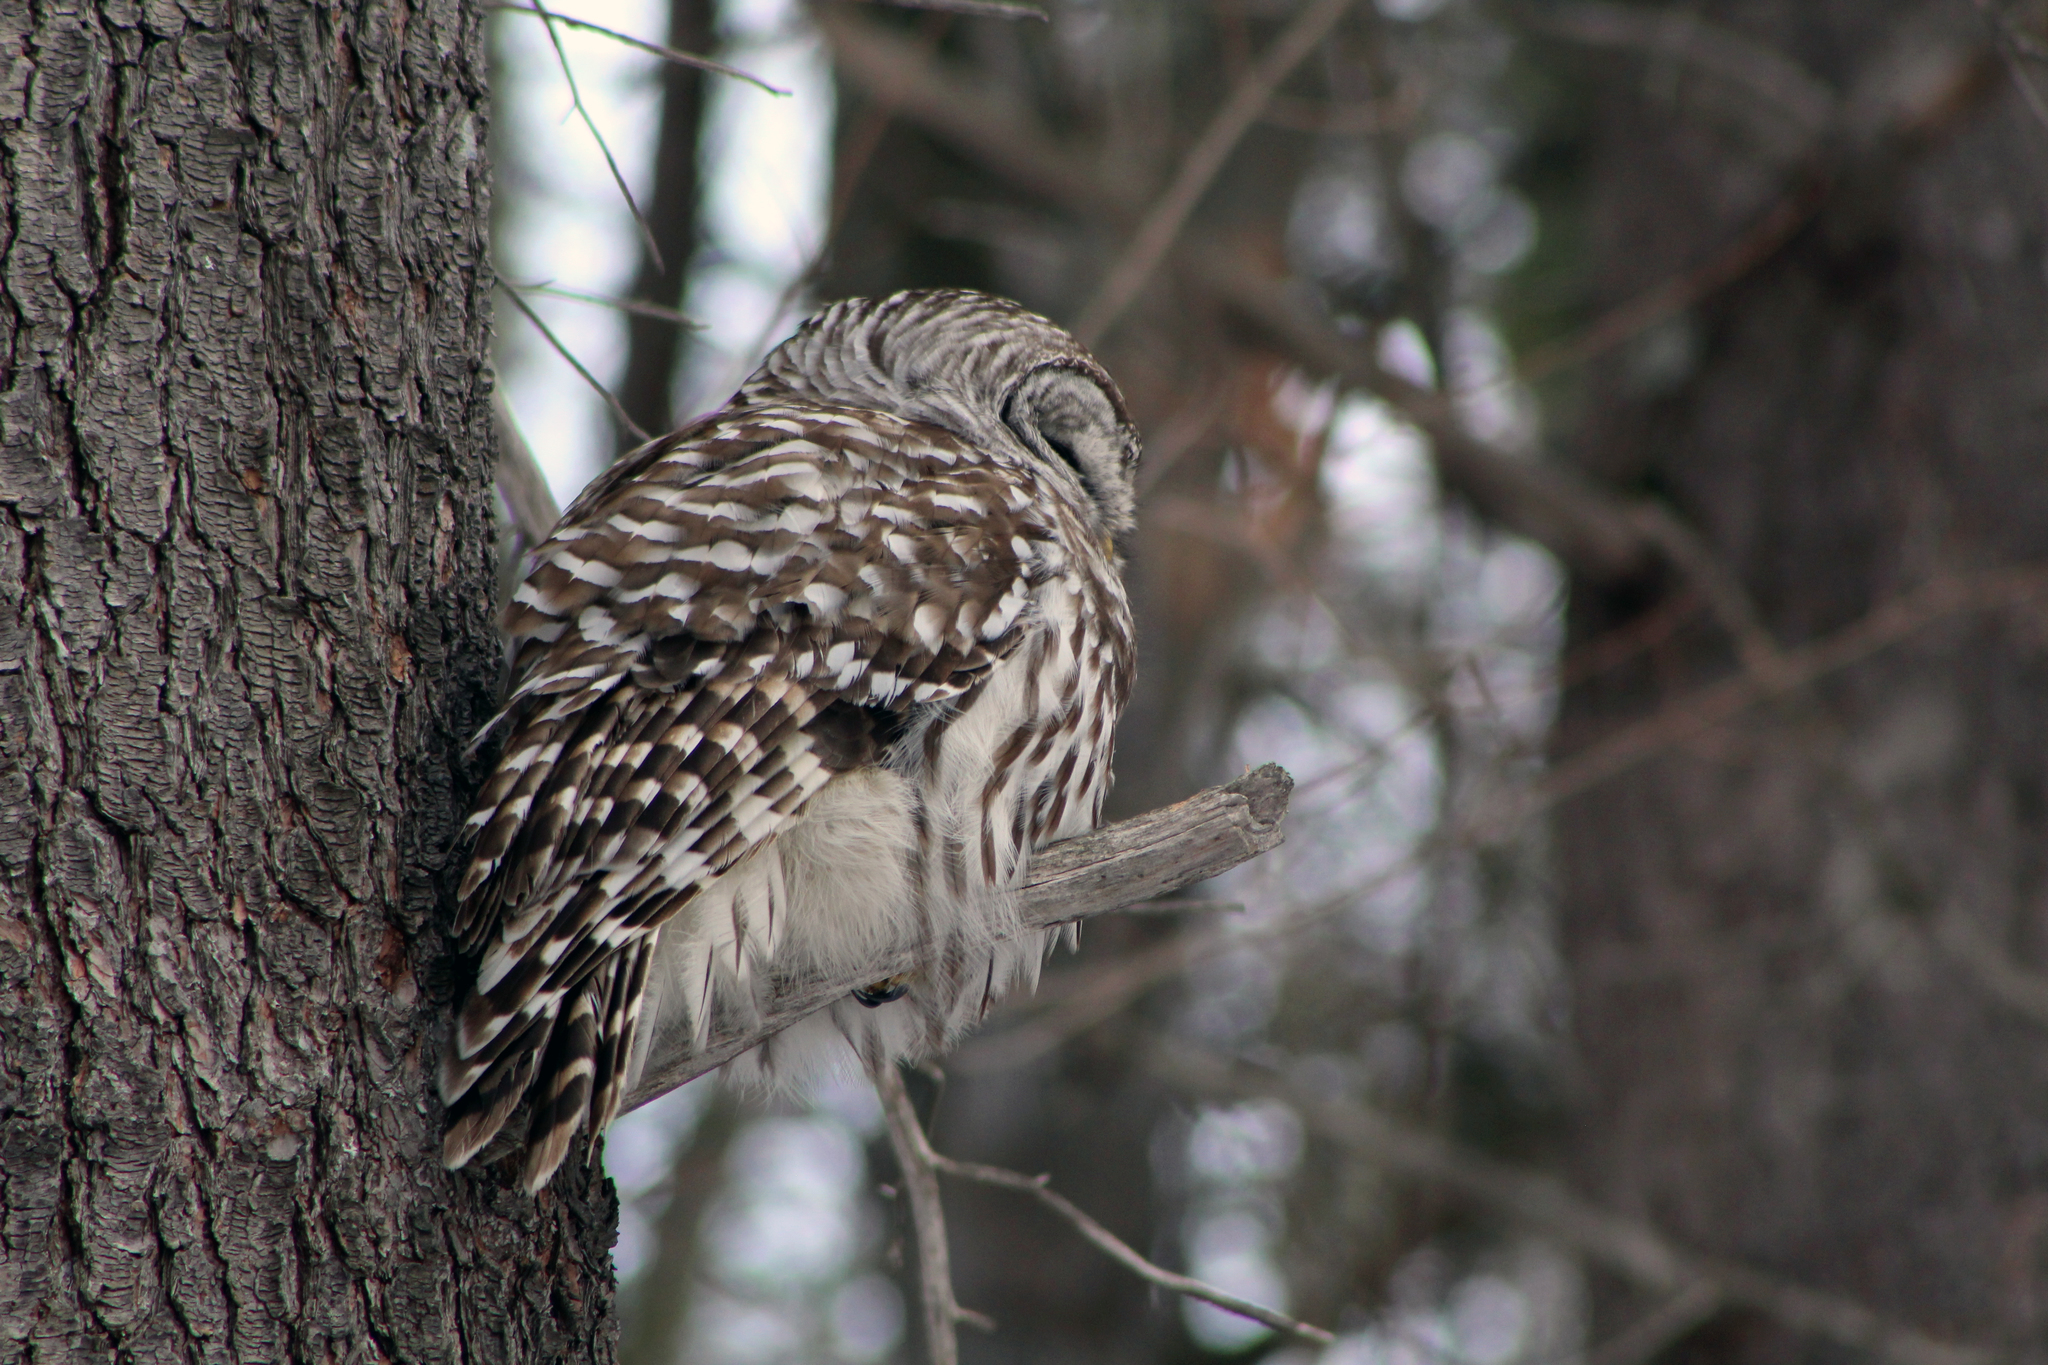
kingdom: Animalia
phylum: Chordata
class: Aves
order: Strigiformes
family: Strigidae
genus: Strix
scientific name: Strix varia
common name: Barred owl
